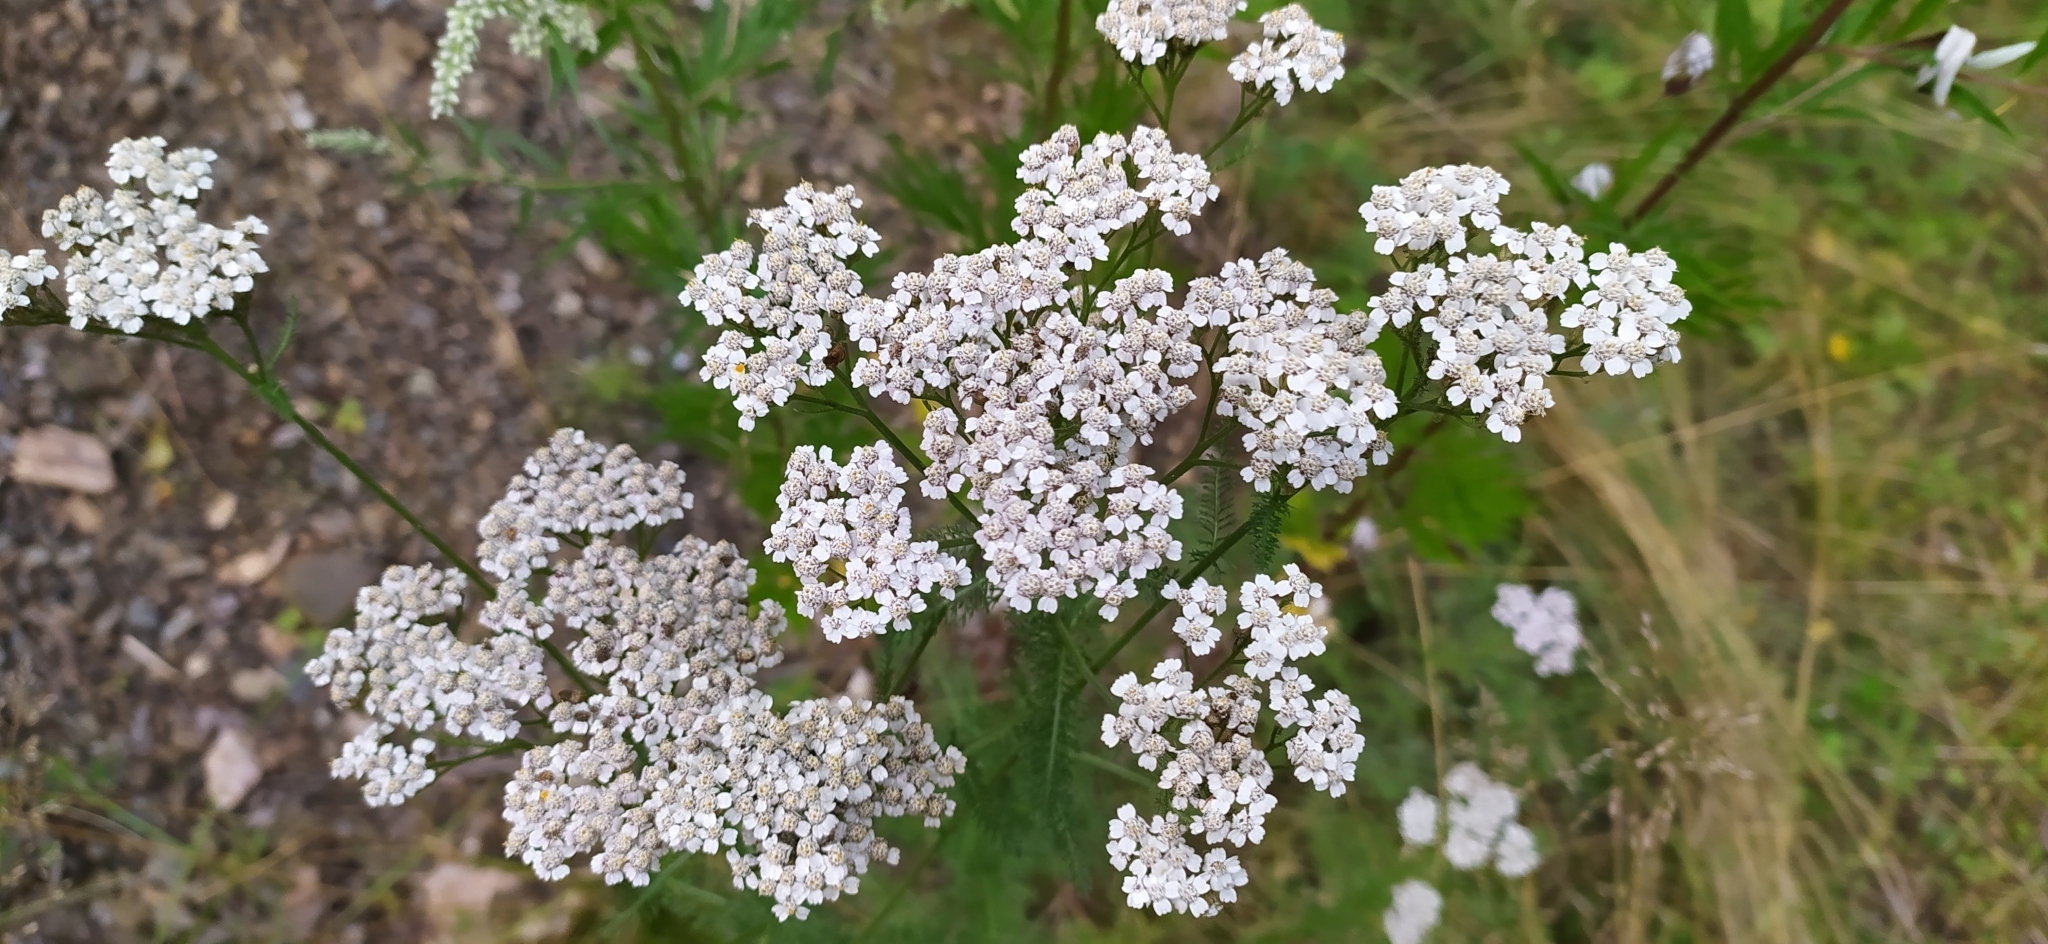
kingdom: Plantae
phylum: Tracheophyta
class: Magnoliopsida
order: Asterales
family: Asteraceae
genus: Achillea
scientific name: Achillea millefolium
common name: Yarrow
